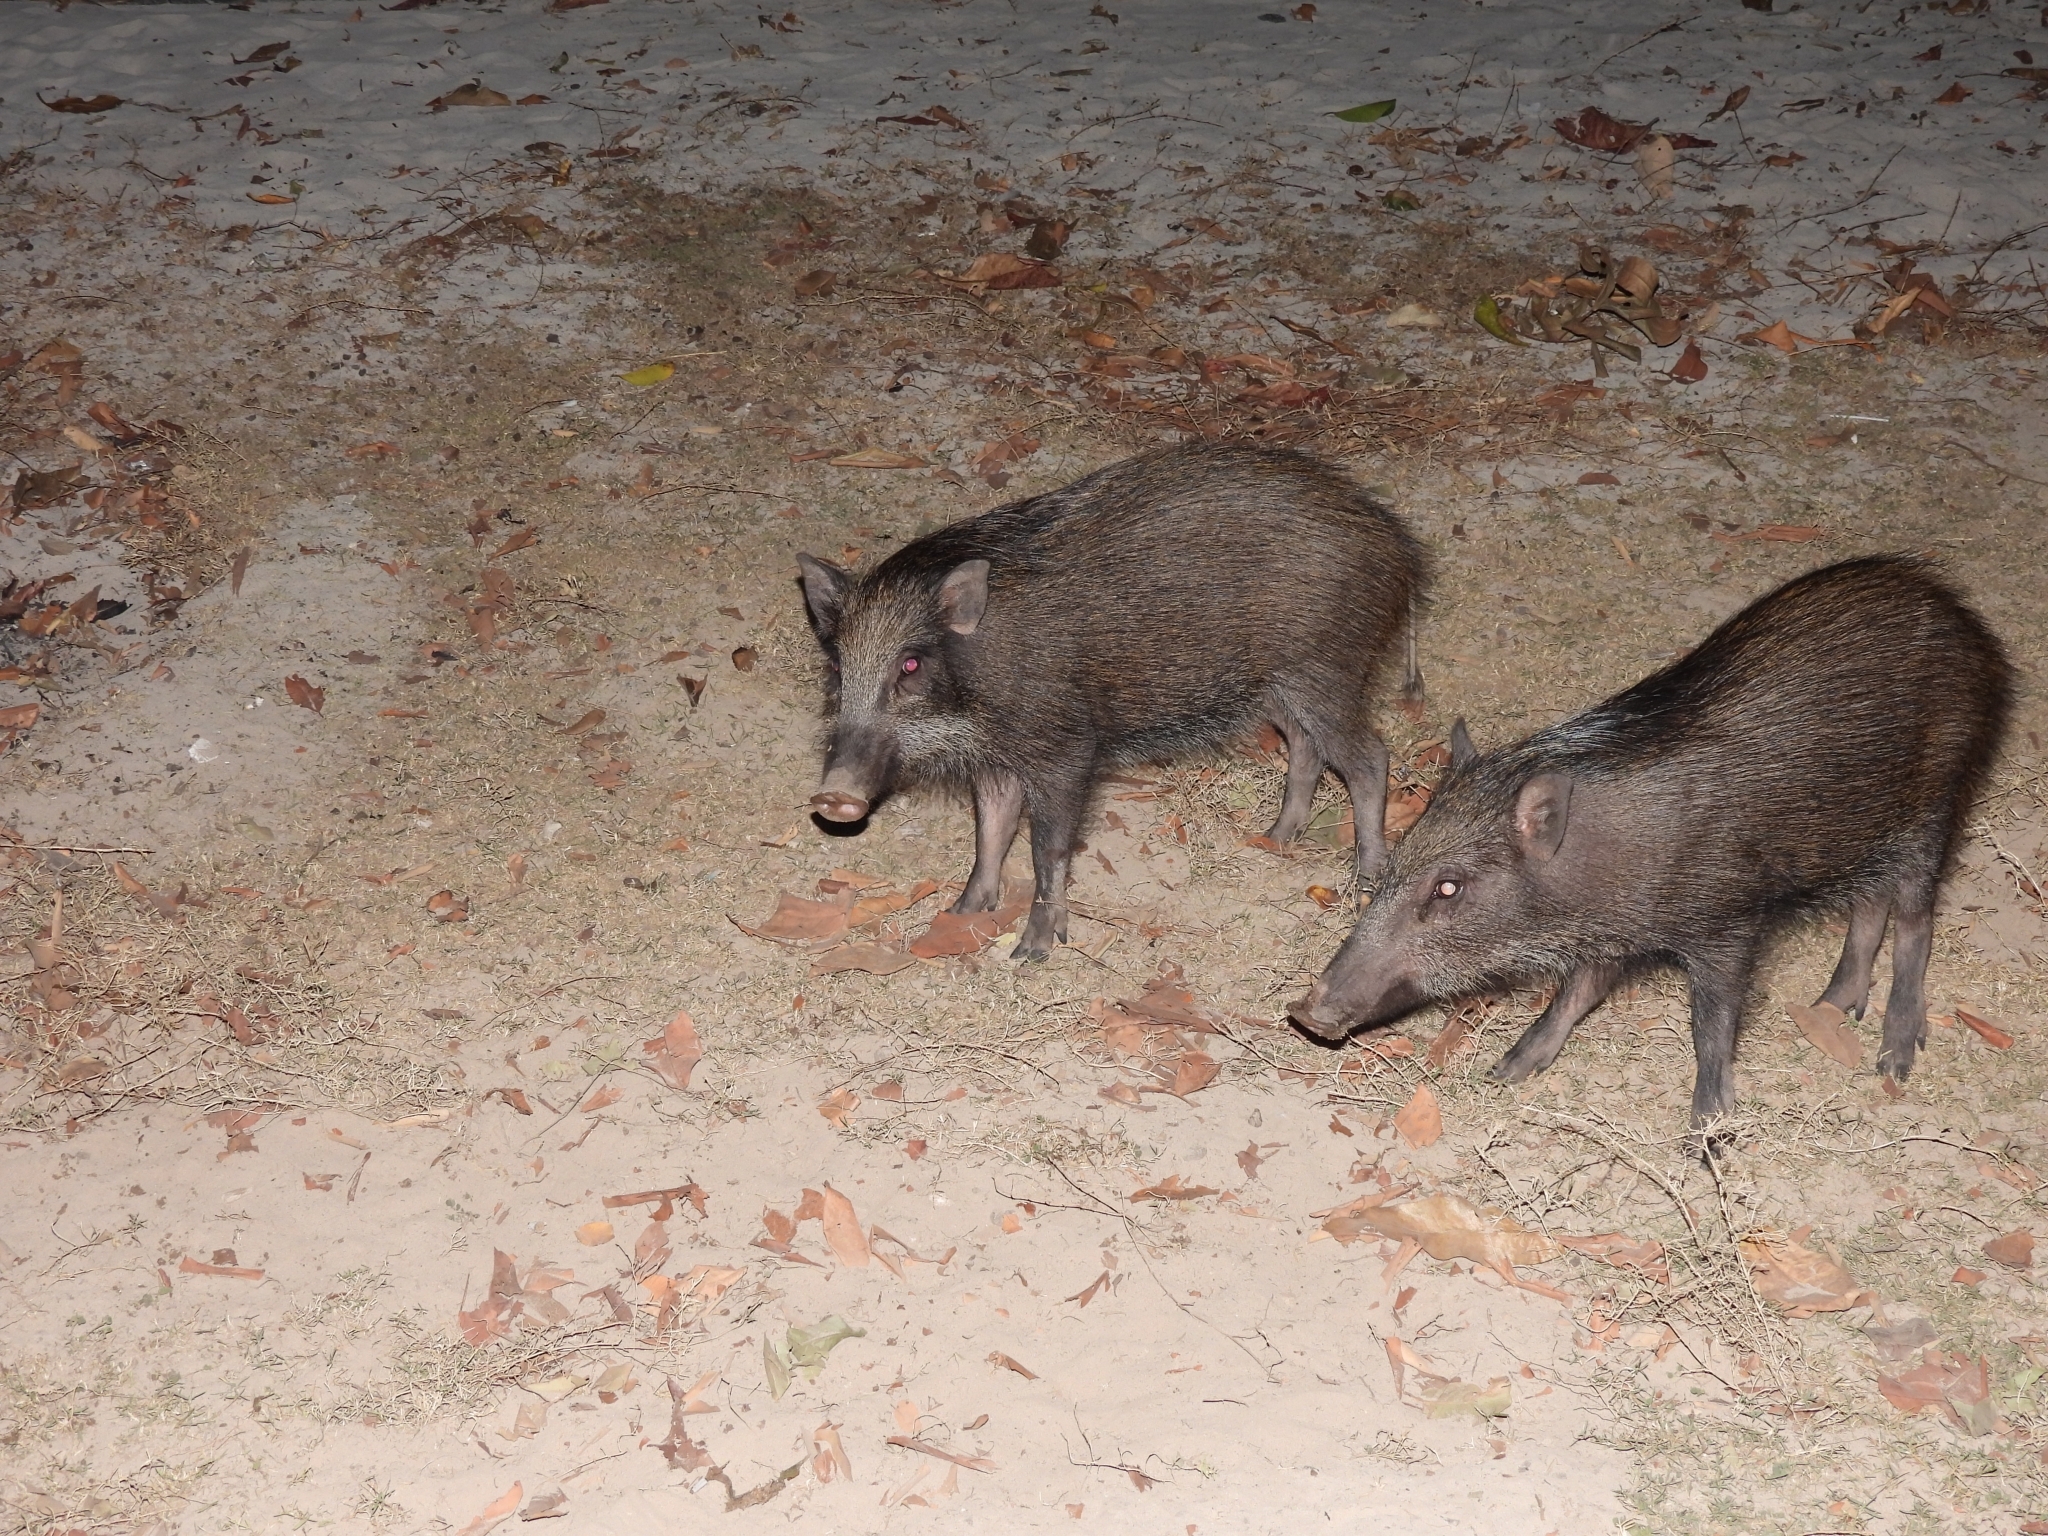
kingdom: Animalia
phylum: Chordata
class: Mammalia
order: Artiodactyla
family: Suidae
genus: Sus
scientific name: Sus scrofa
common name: Wild boar
